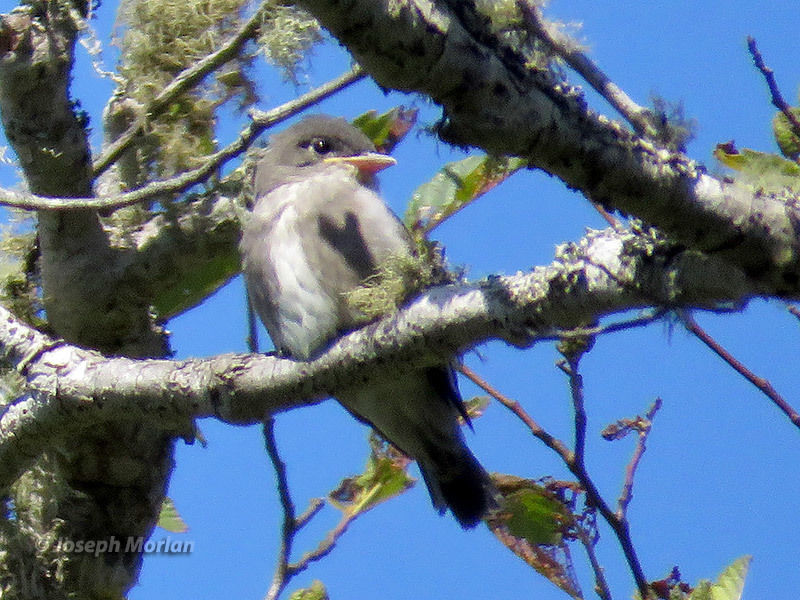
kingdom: Animalia
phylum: Chordata
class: Aves
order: Passeriformes
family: Tyrannidae
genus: Contopus
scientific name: Contopus cooperi
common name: Olive-sided flycatcher
